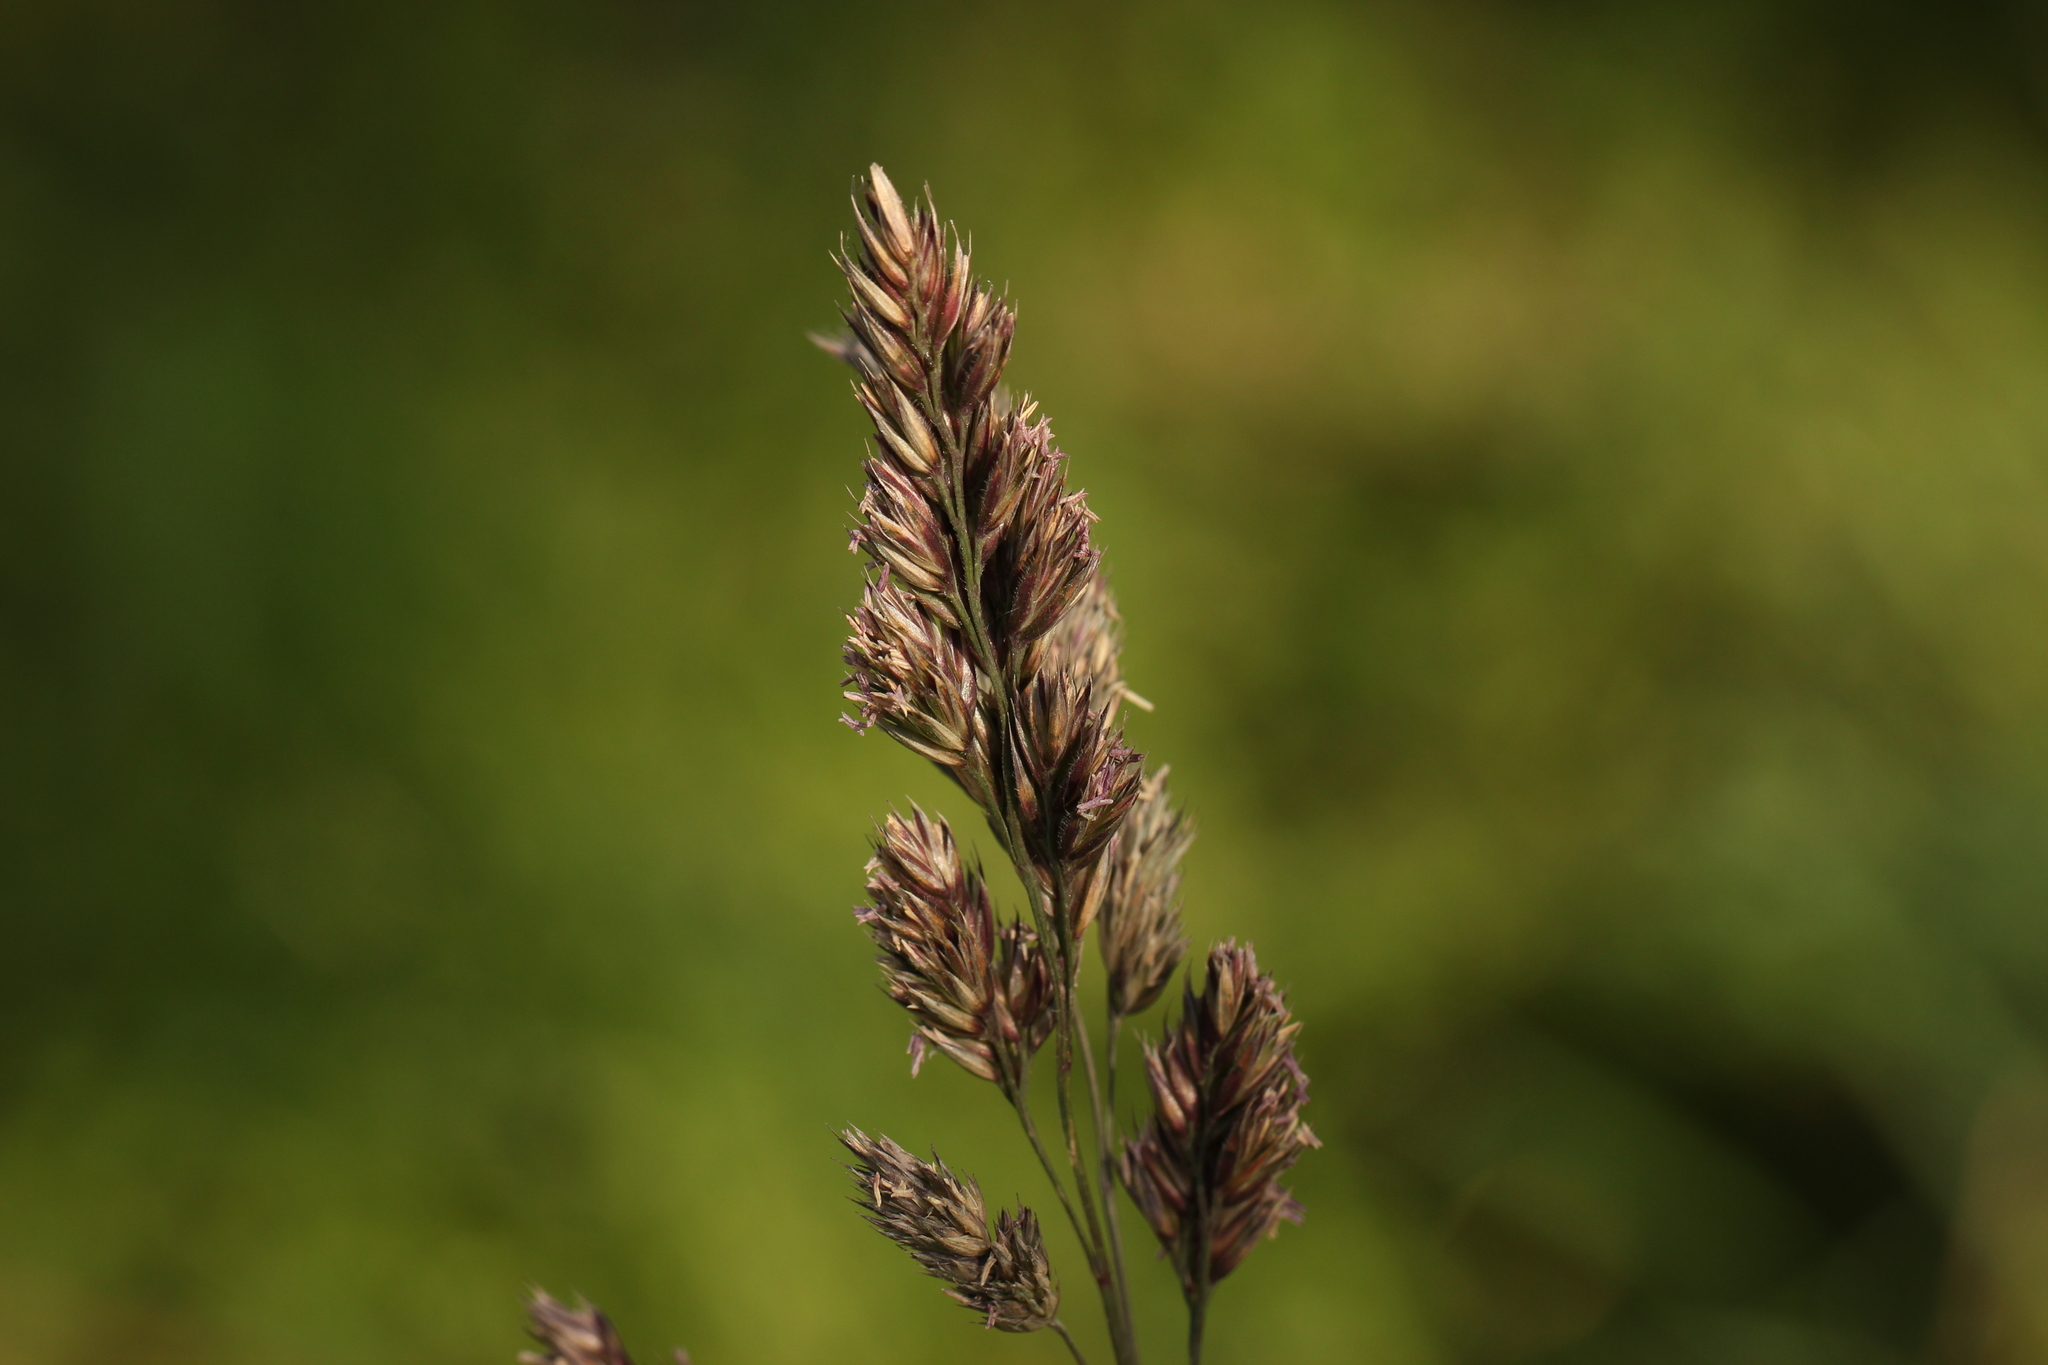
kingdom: Plantae
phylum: Tracheophyta
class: Liliopsida
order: Poales
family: Poaceae
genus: Dactylis
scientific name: Dactylis glomerata
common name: Orchardgrass
